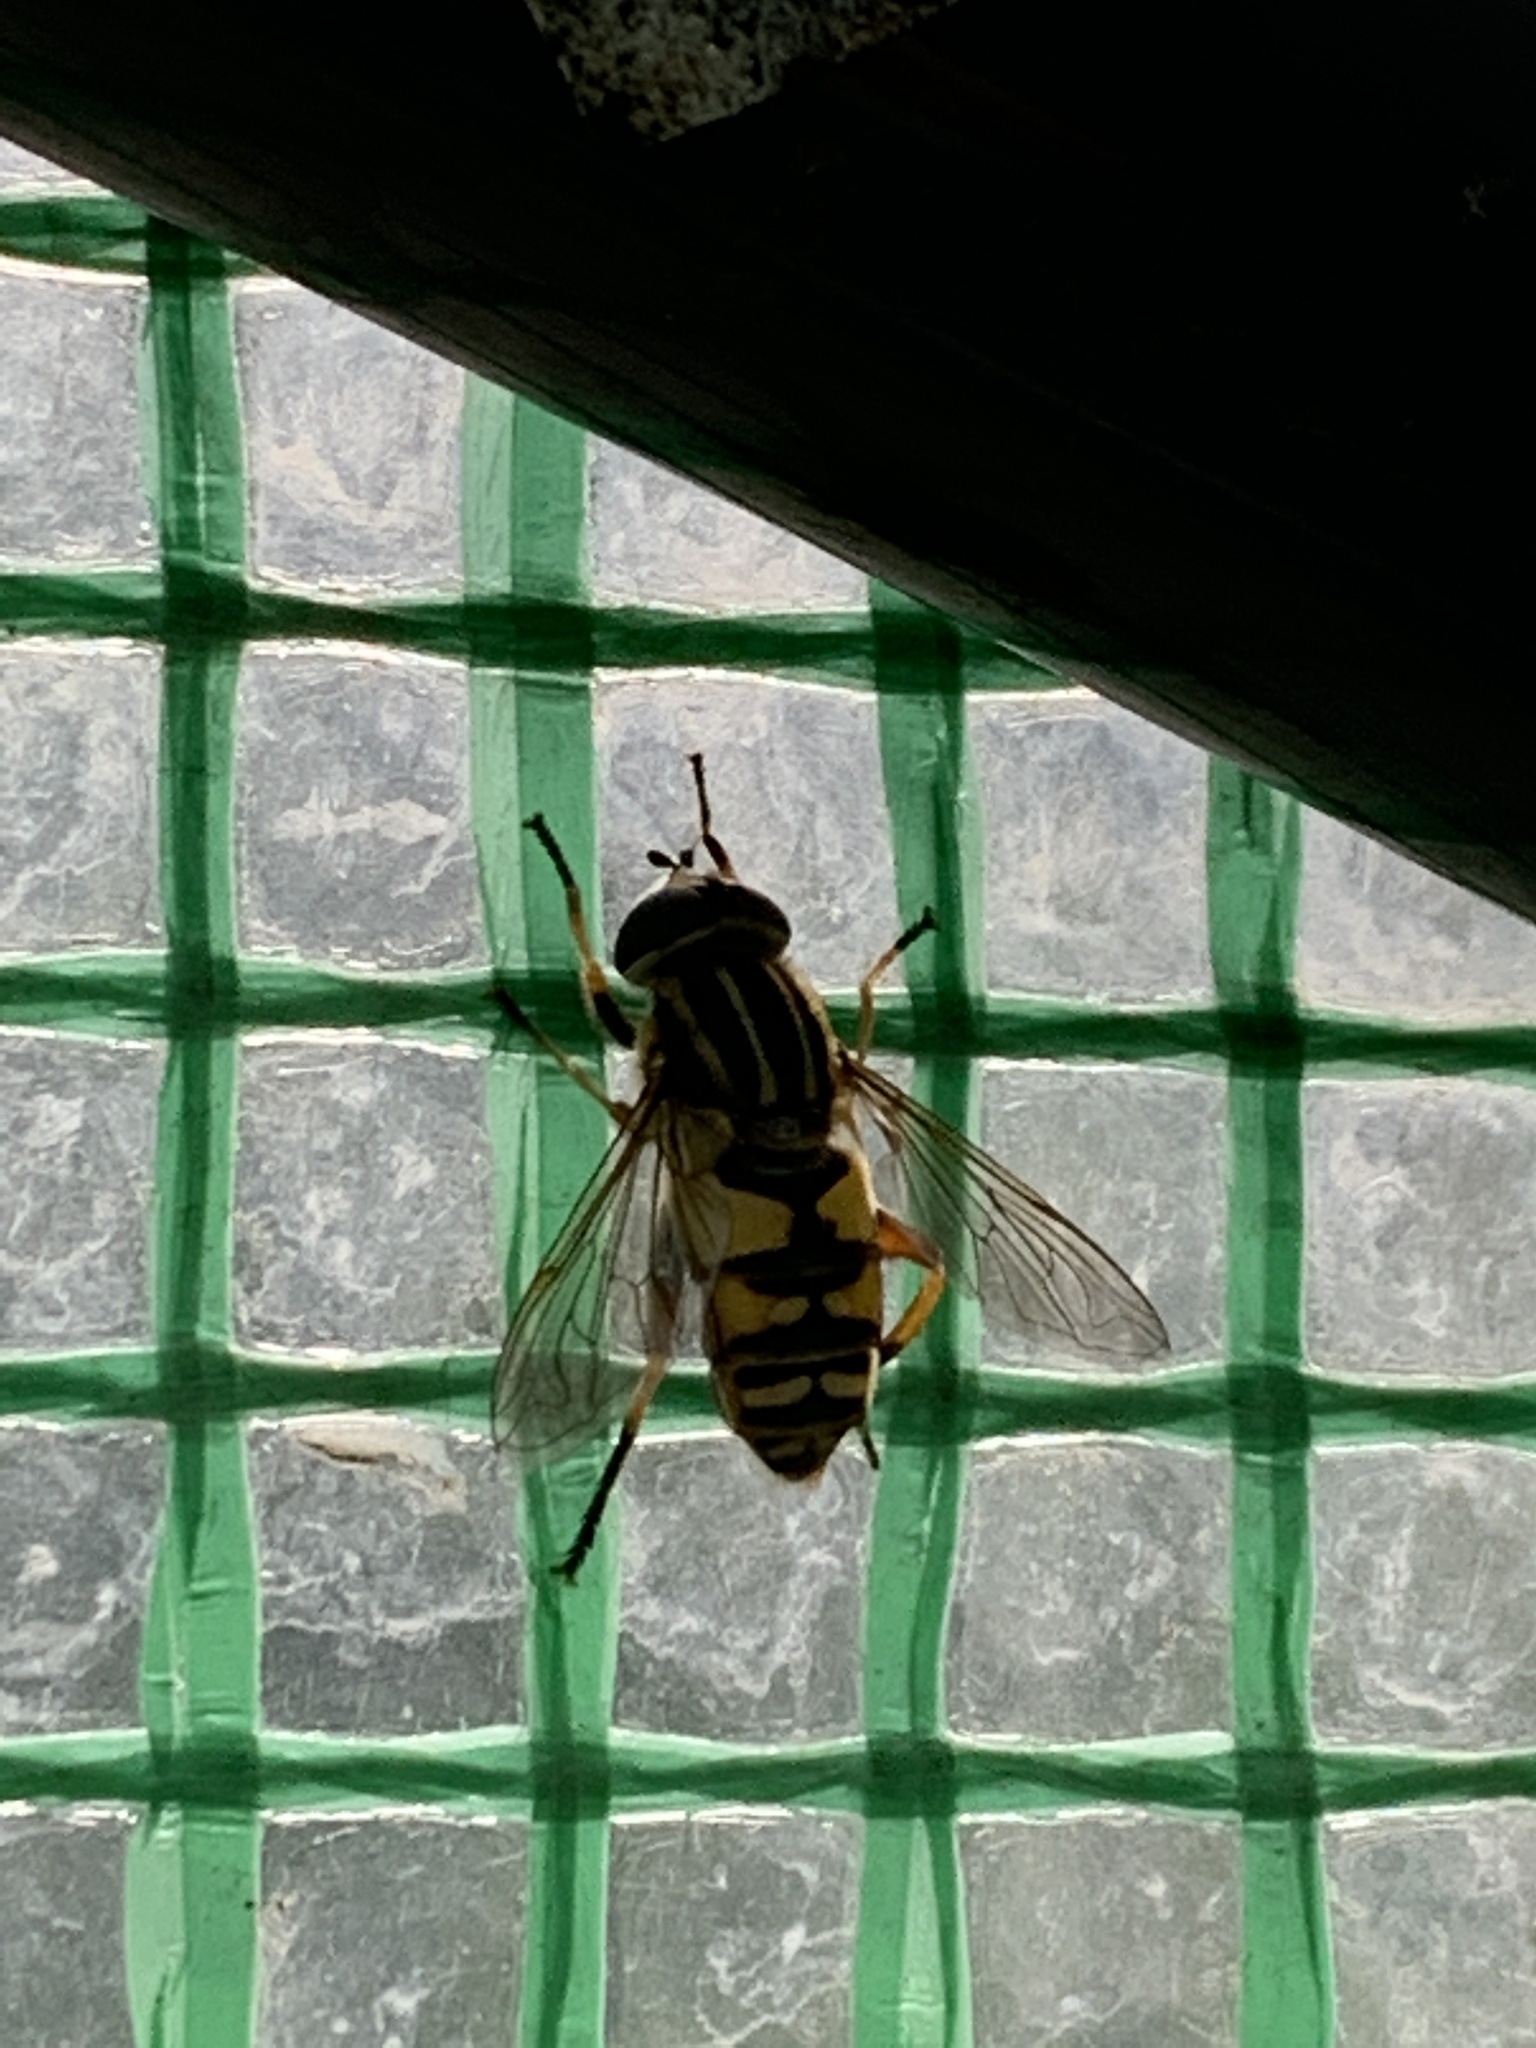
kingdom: Animalia
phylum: Arthropoda
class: Insecta
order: Diptera
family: Syrphidae
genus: Helophilus
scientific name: Helophilus pendulus
